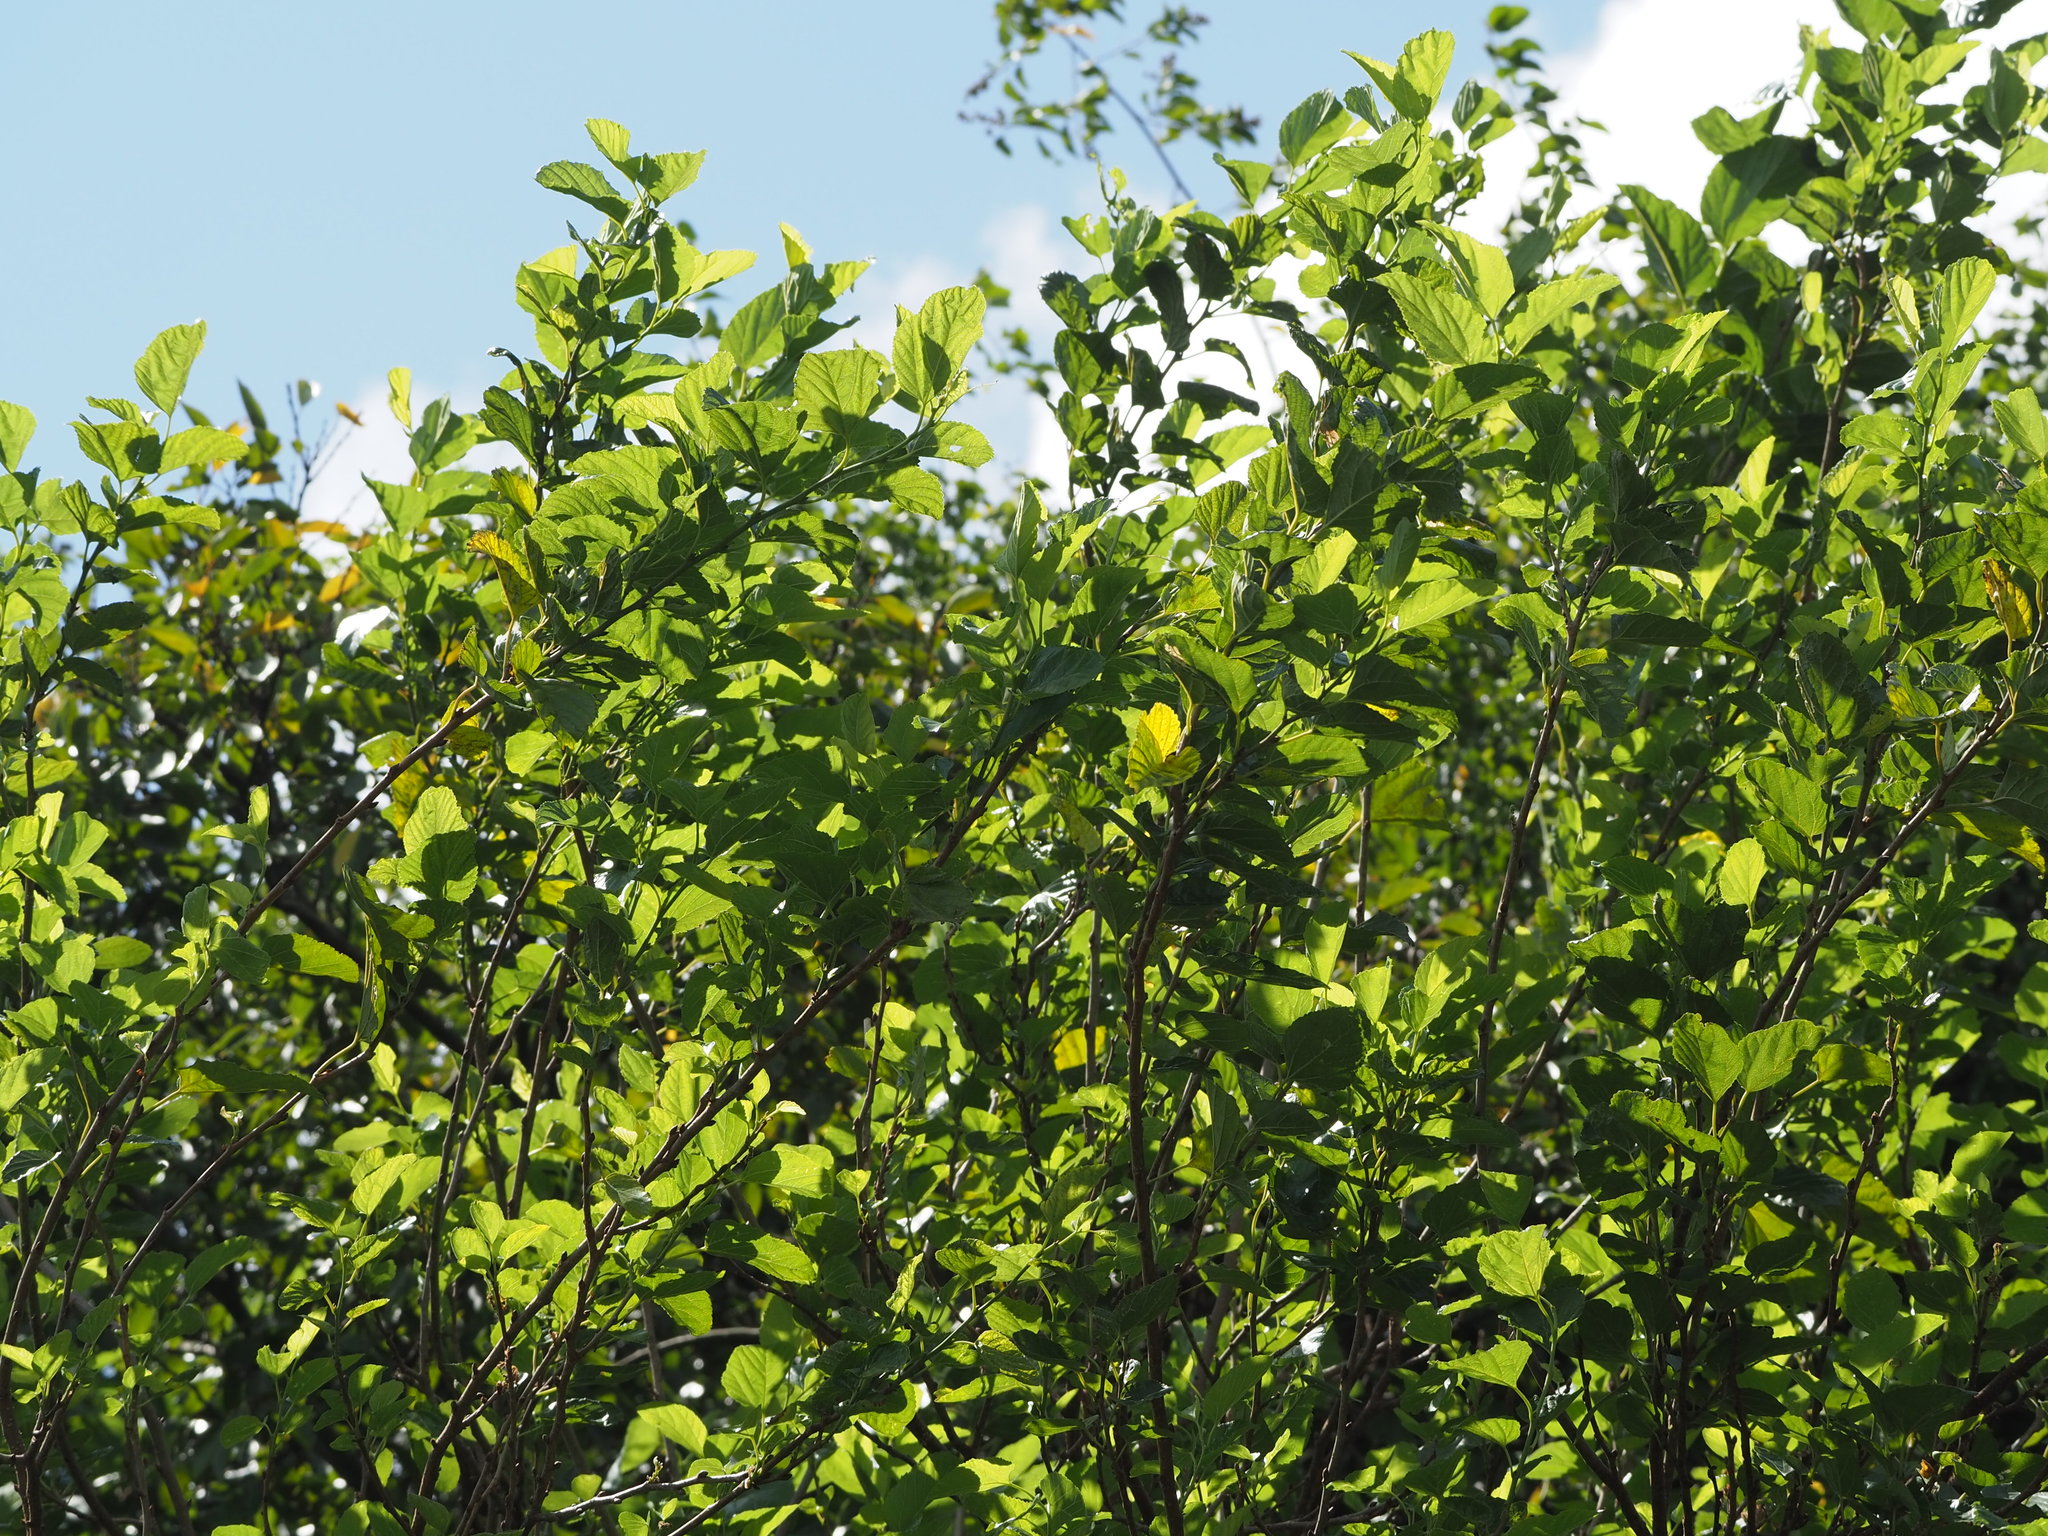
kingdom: Plantae
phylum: Tracheophyta
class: Magnoliopsida
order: Rosales
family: Moraceae
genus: Morus
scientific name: Morus indica
